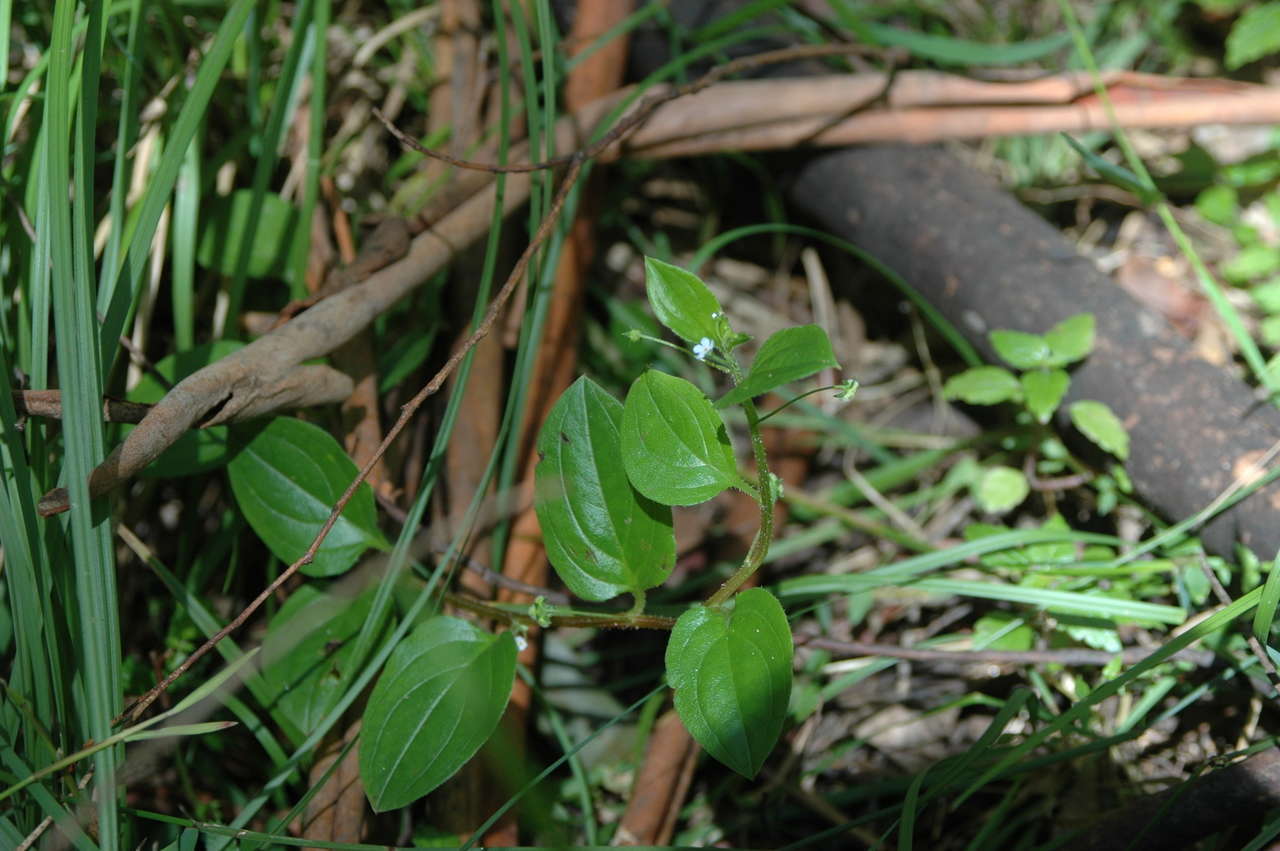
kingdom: Plantae
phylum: Tracheophyta
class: Magnoliopsida
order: Boraginales
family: Boraginaceae
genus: Hackelia
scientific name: Hackelia latifolia
